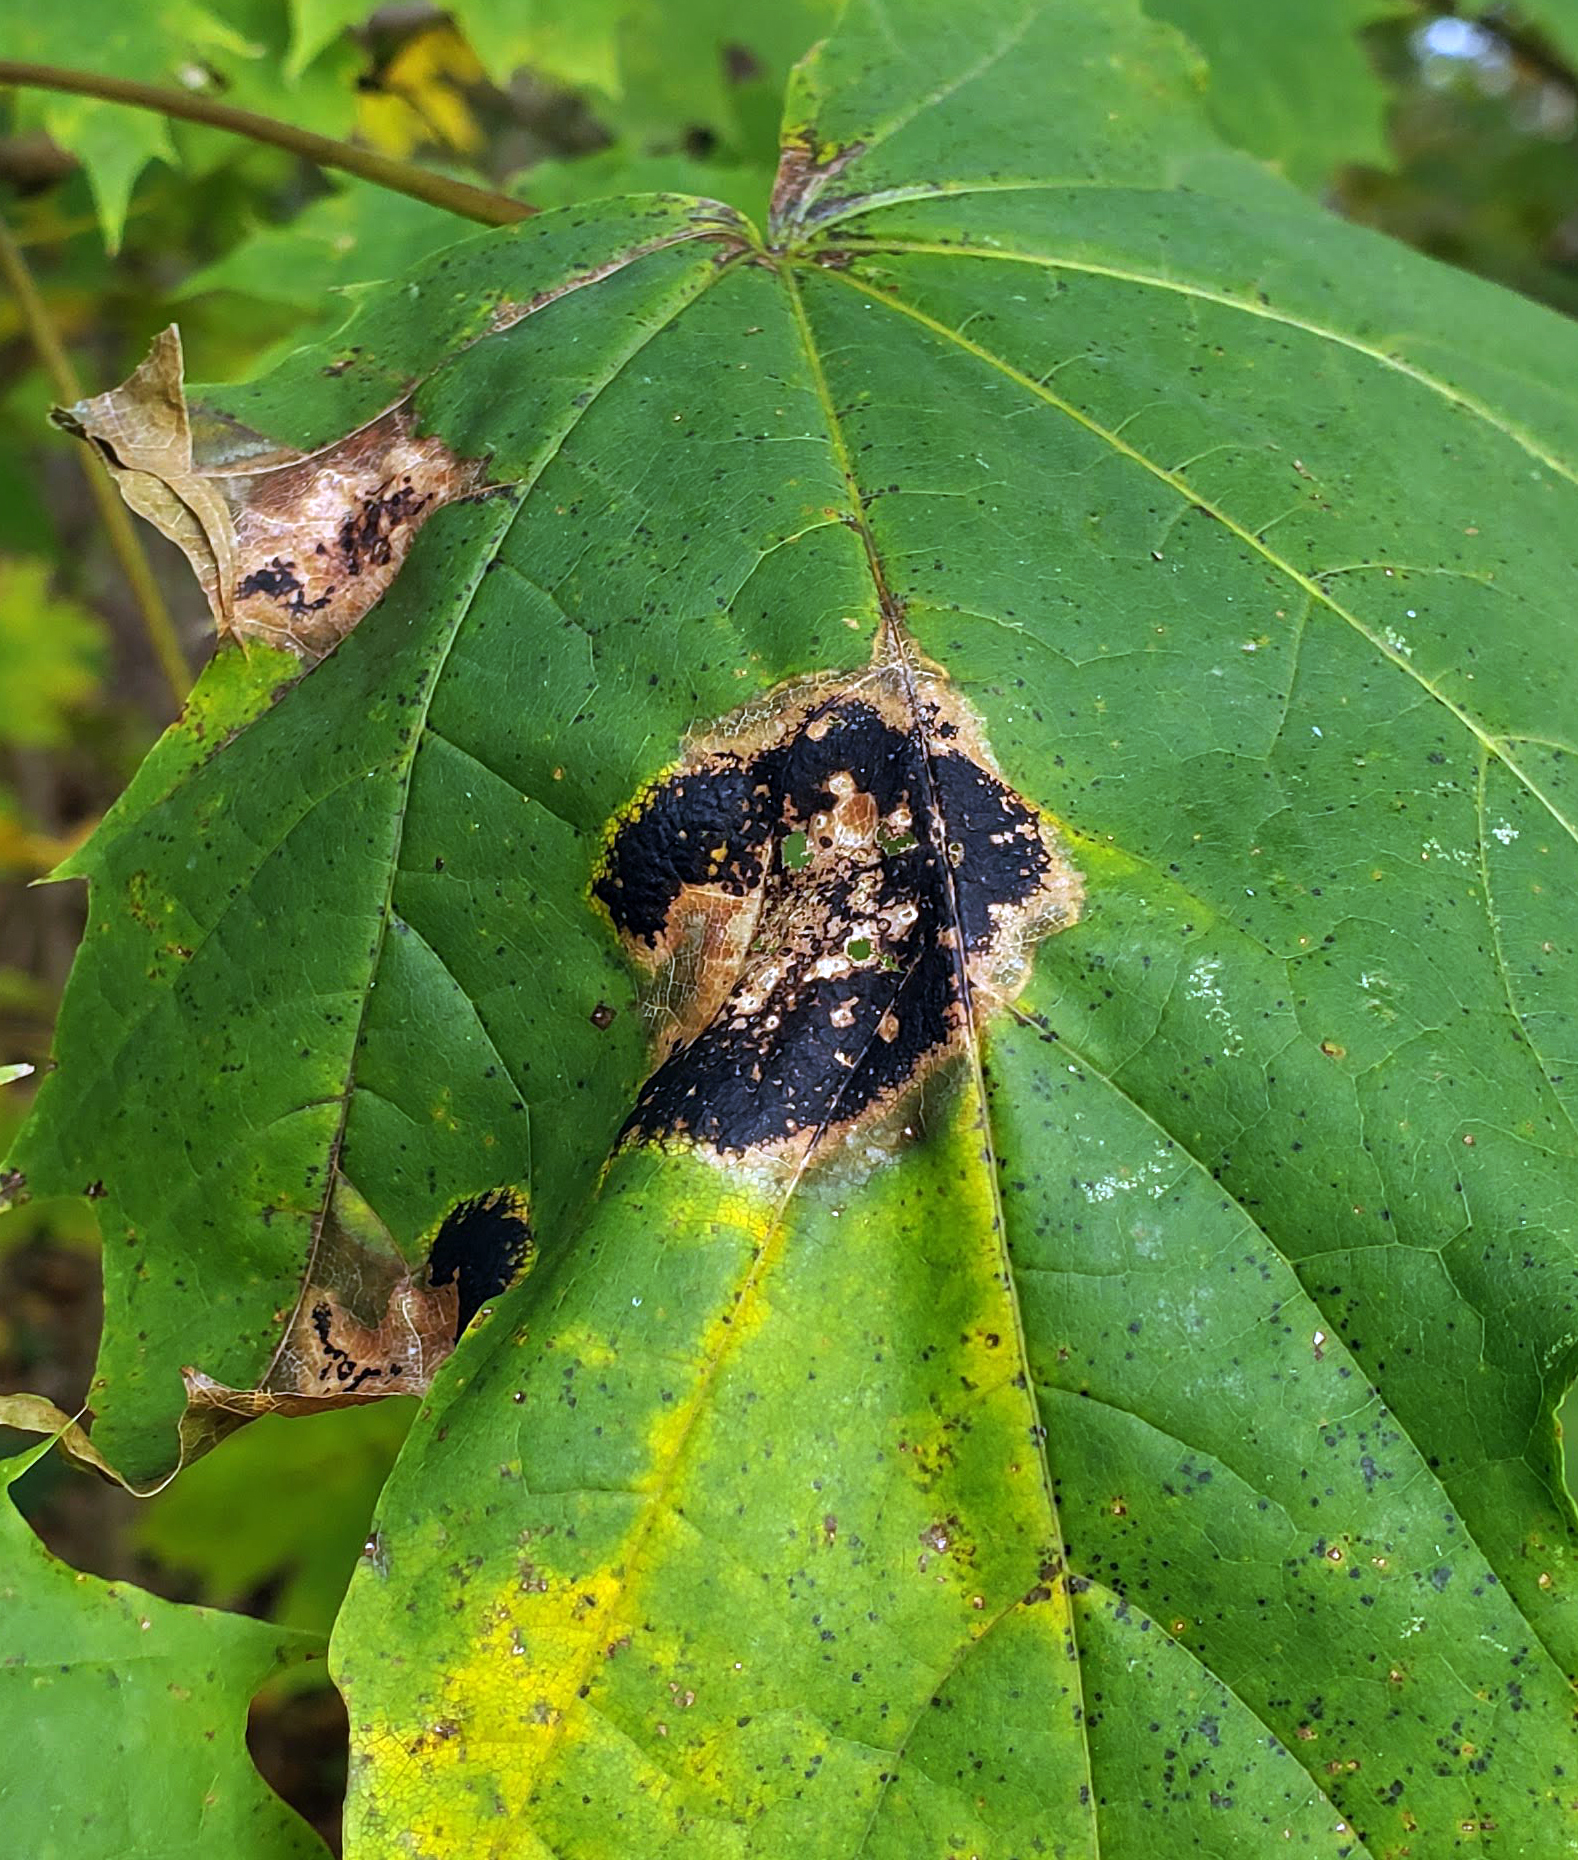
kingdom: Fungi
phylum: Ascomycota
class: Leotiomycetes
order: Rhytismatales
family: Rhytismataceae
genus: Rhytisma
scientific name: Rhytisma acerinum
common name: European tar spot
